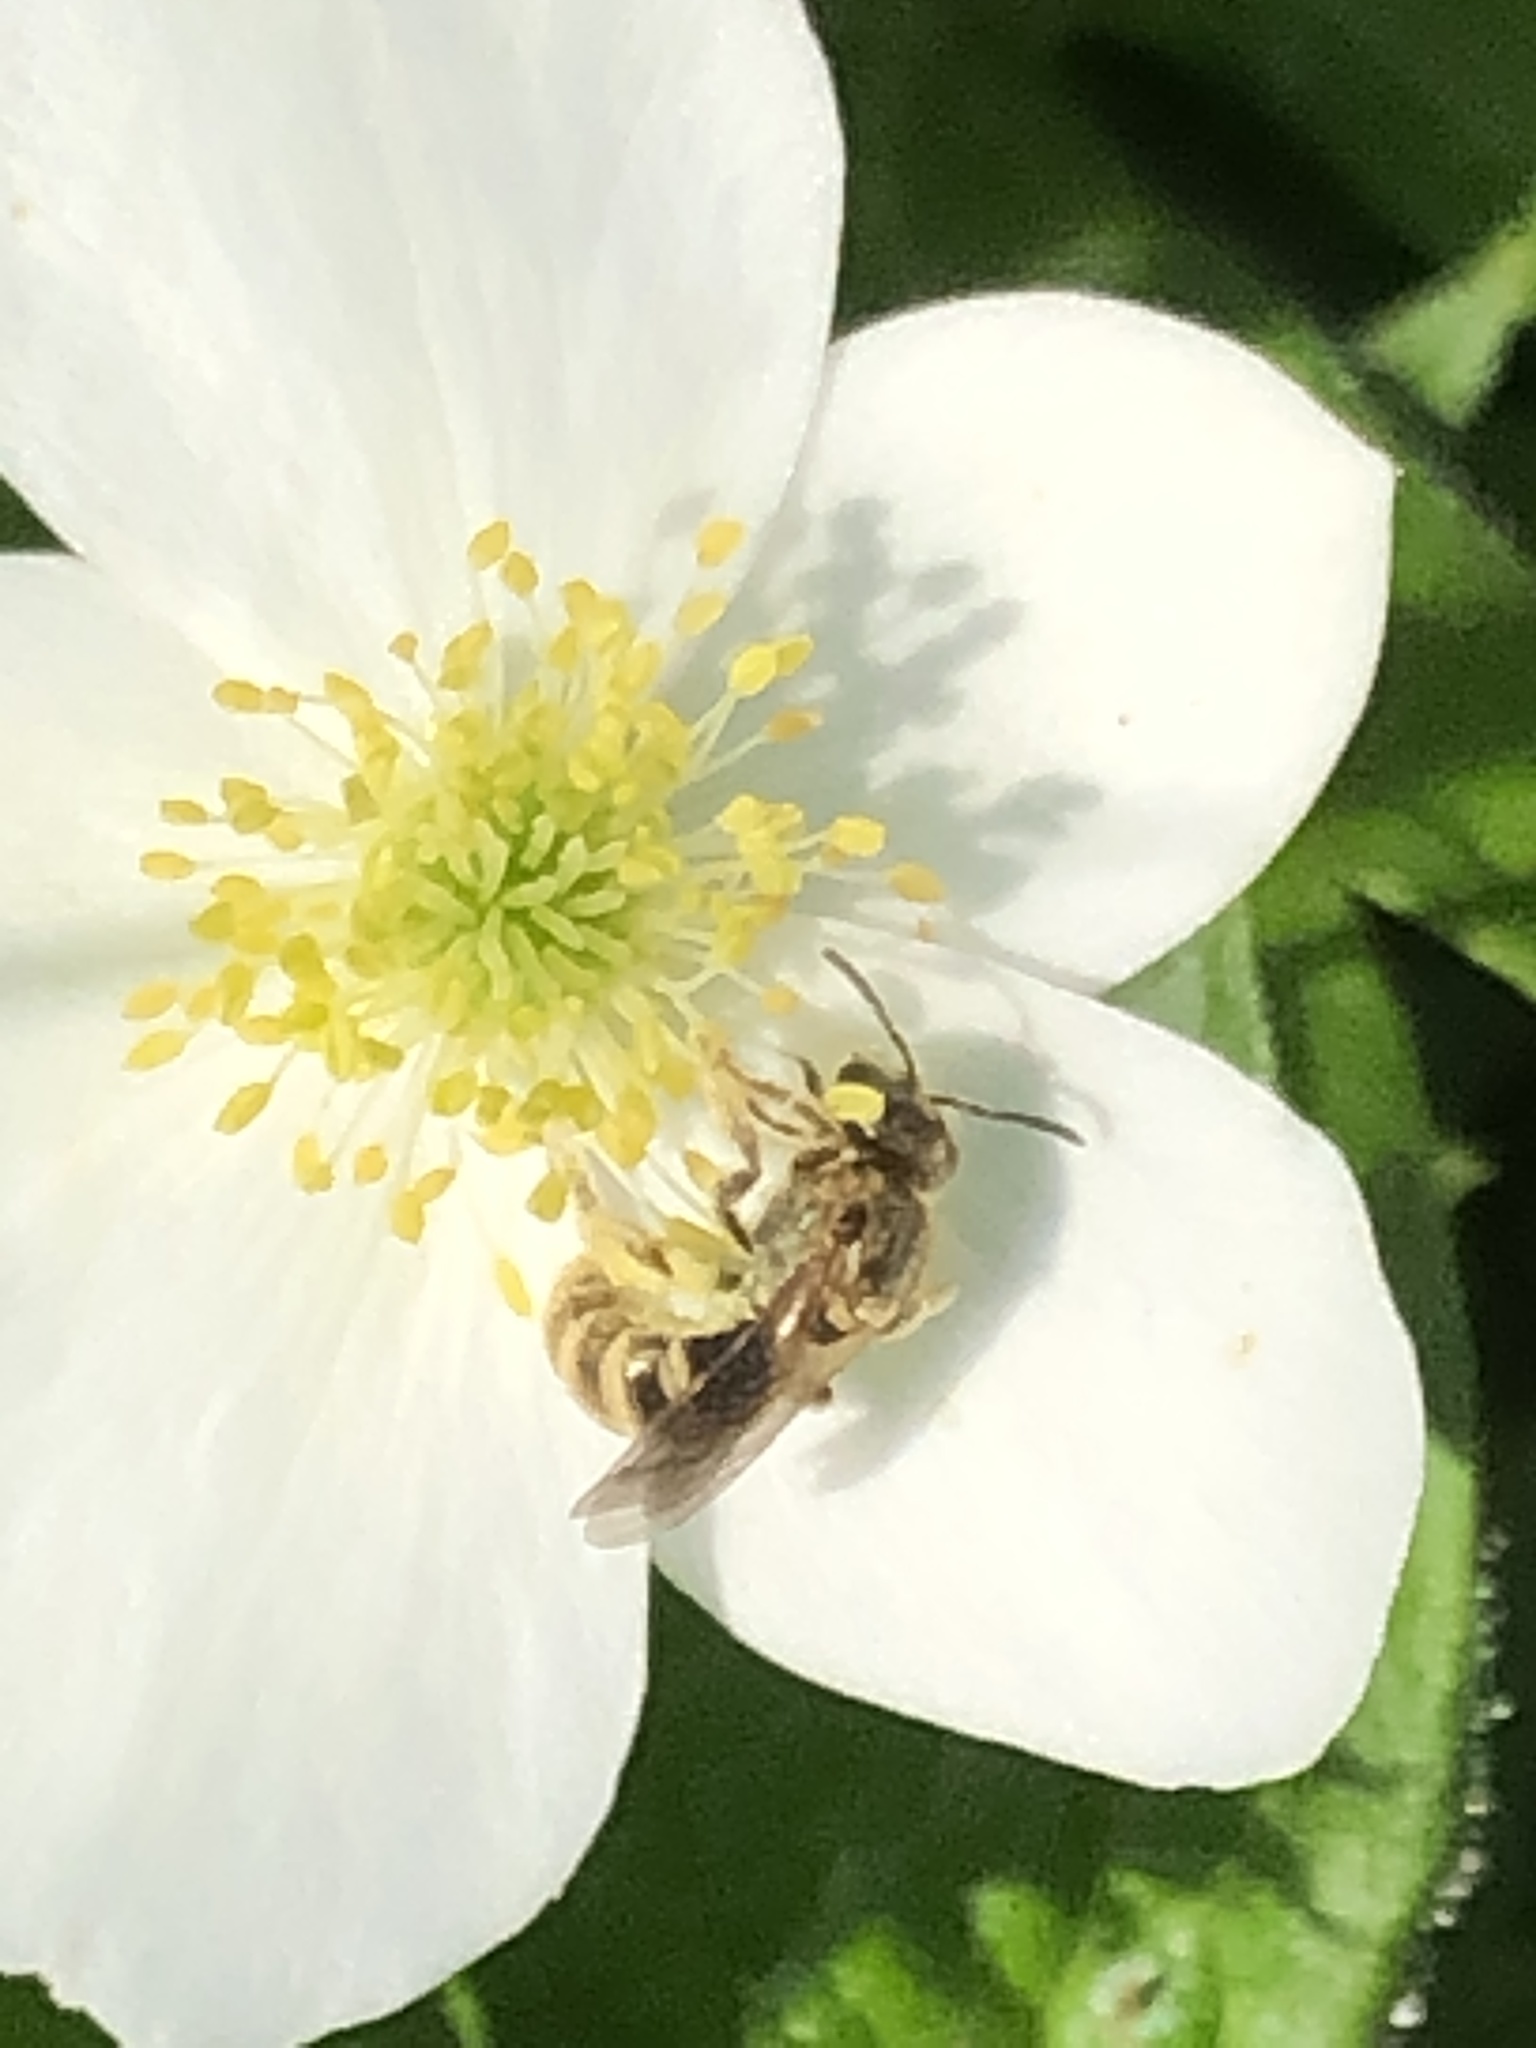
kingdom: Animalia
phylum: Arthropoda
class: Insecta
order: Hymenoptera
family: Halictidae
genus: Halictus
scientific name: Halictus confusus
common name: Southern bronze furrow bee
